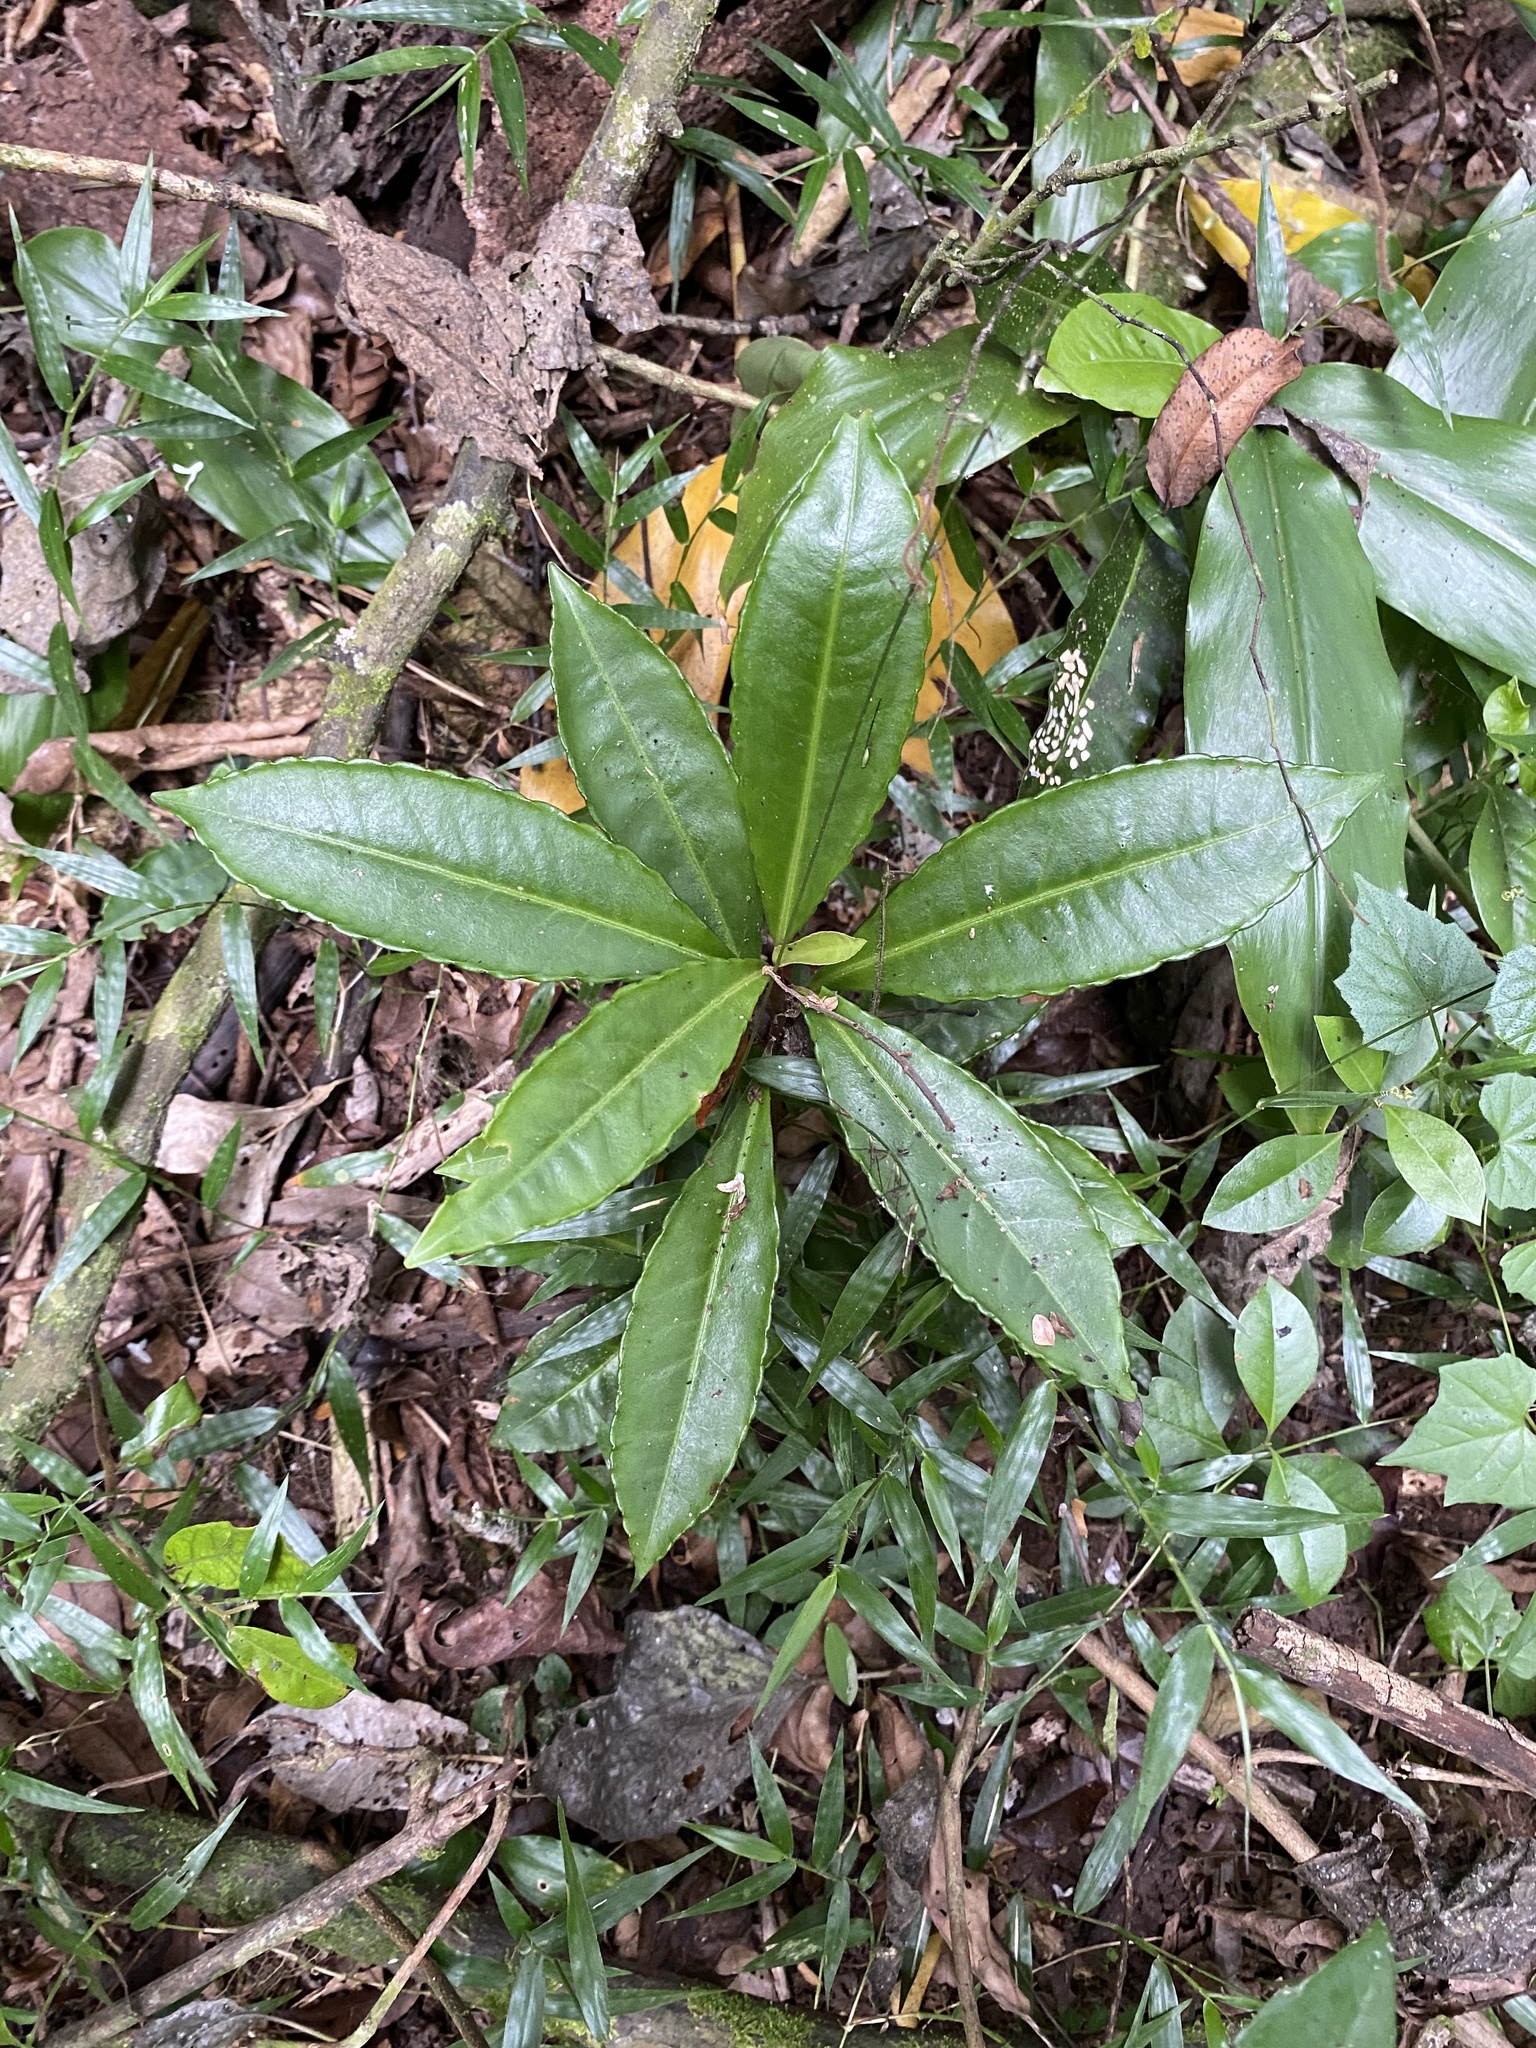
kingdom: Plantae
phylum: Tracheophyta
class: Magnoliopsida
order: Ericales
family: Primulaceae
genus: Ardisia
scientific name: Ardisia crenata
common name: Hen's eyes
